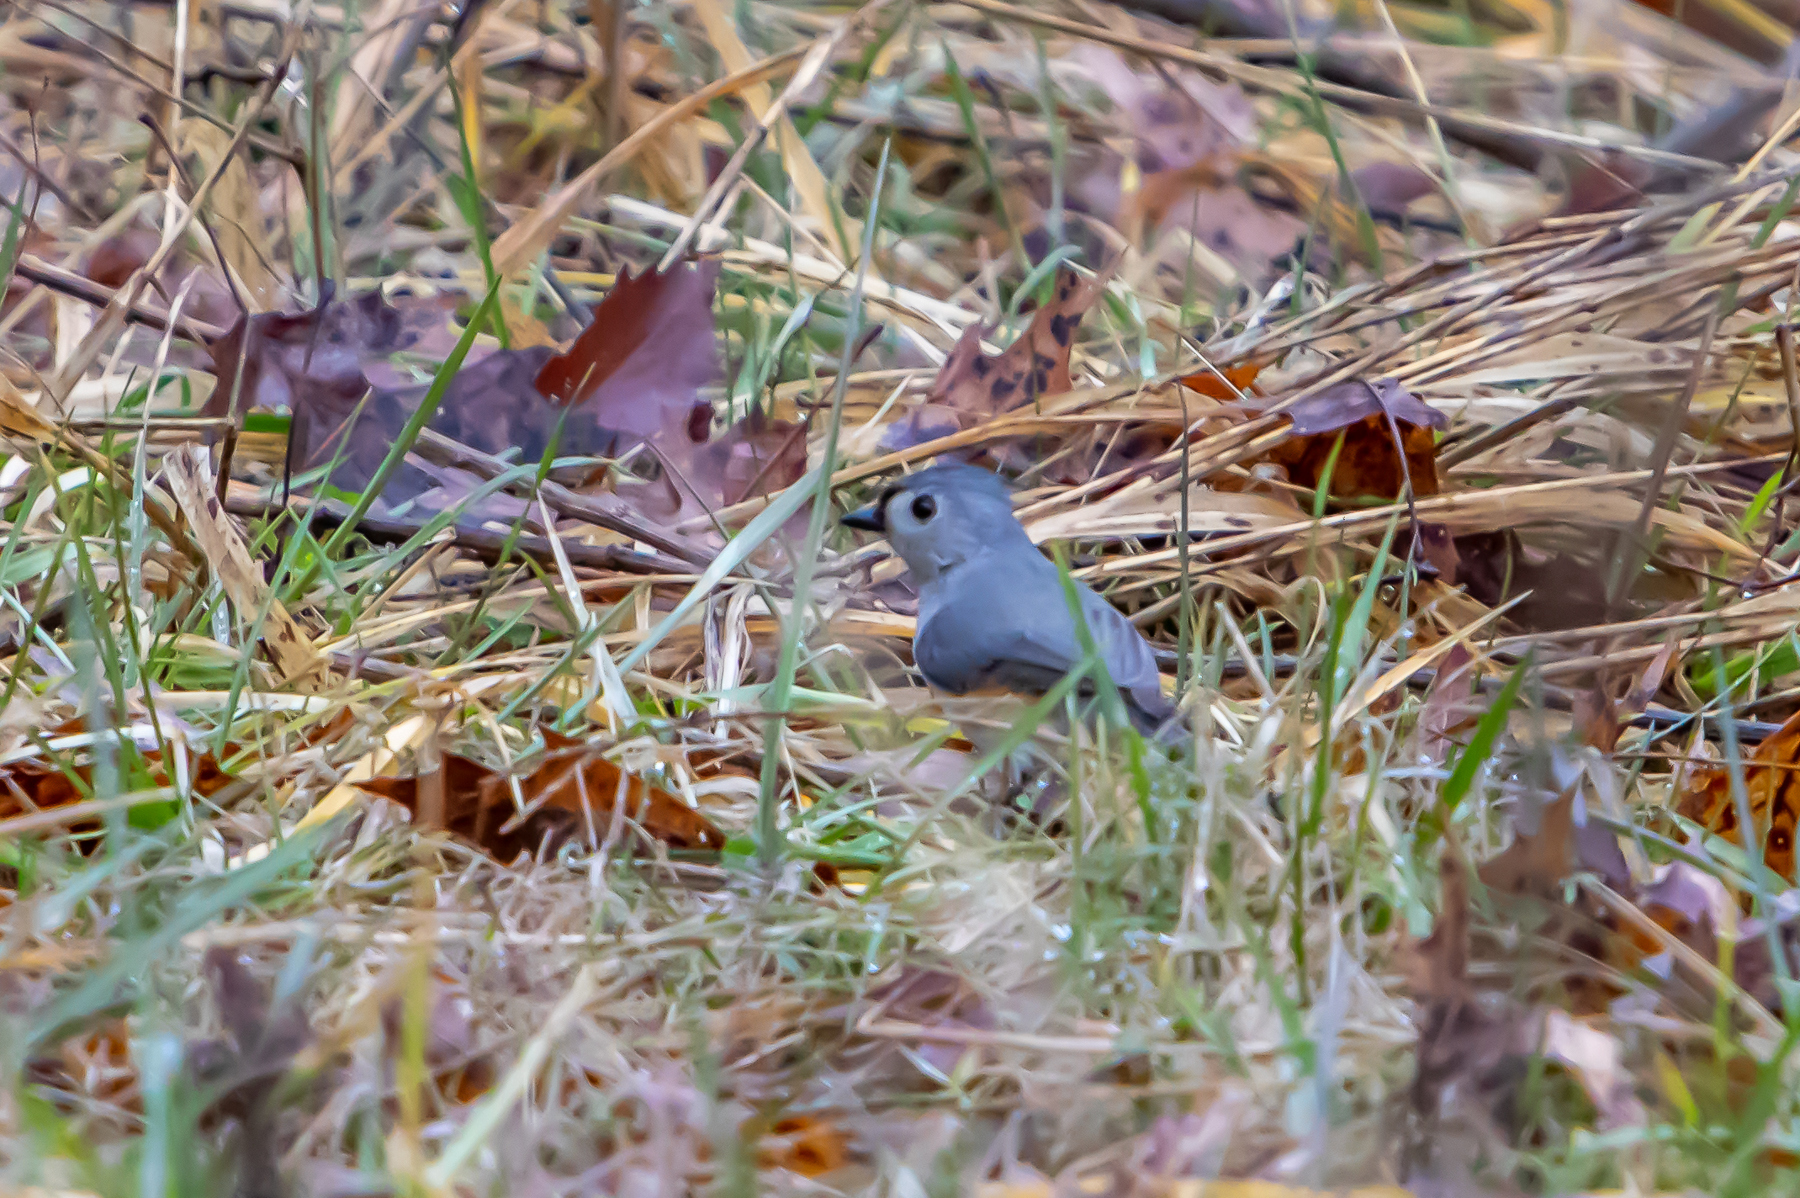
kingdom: Animalia
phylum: Chordata
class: Aves
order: Passeriformes
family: Paridae
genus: Baeolophus
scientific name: Baeolophus bicolor
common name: Tufted titmouse
